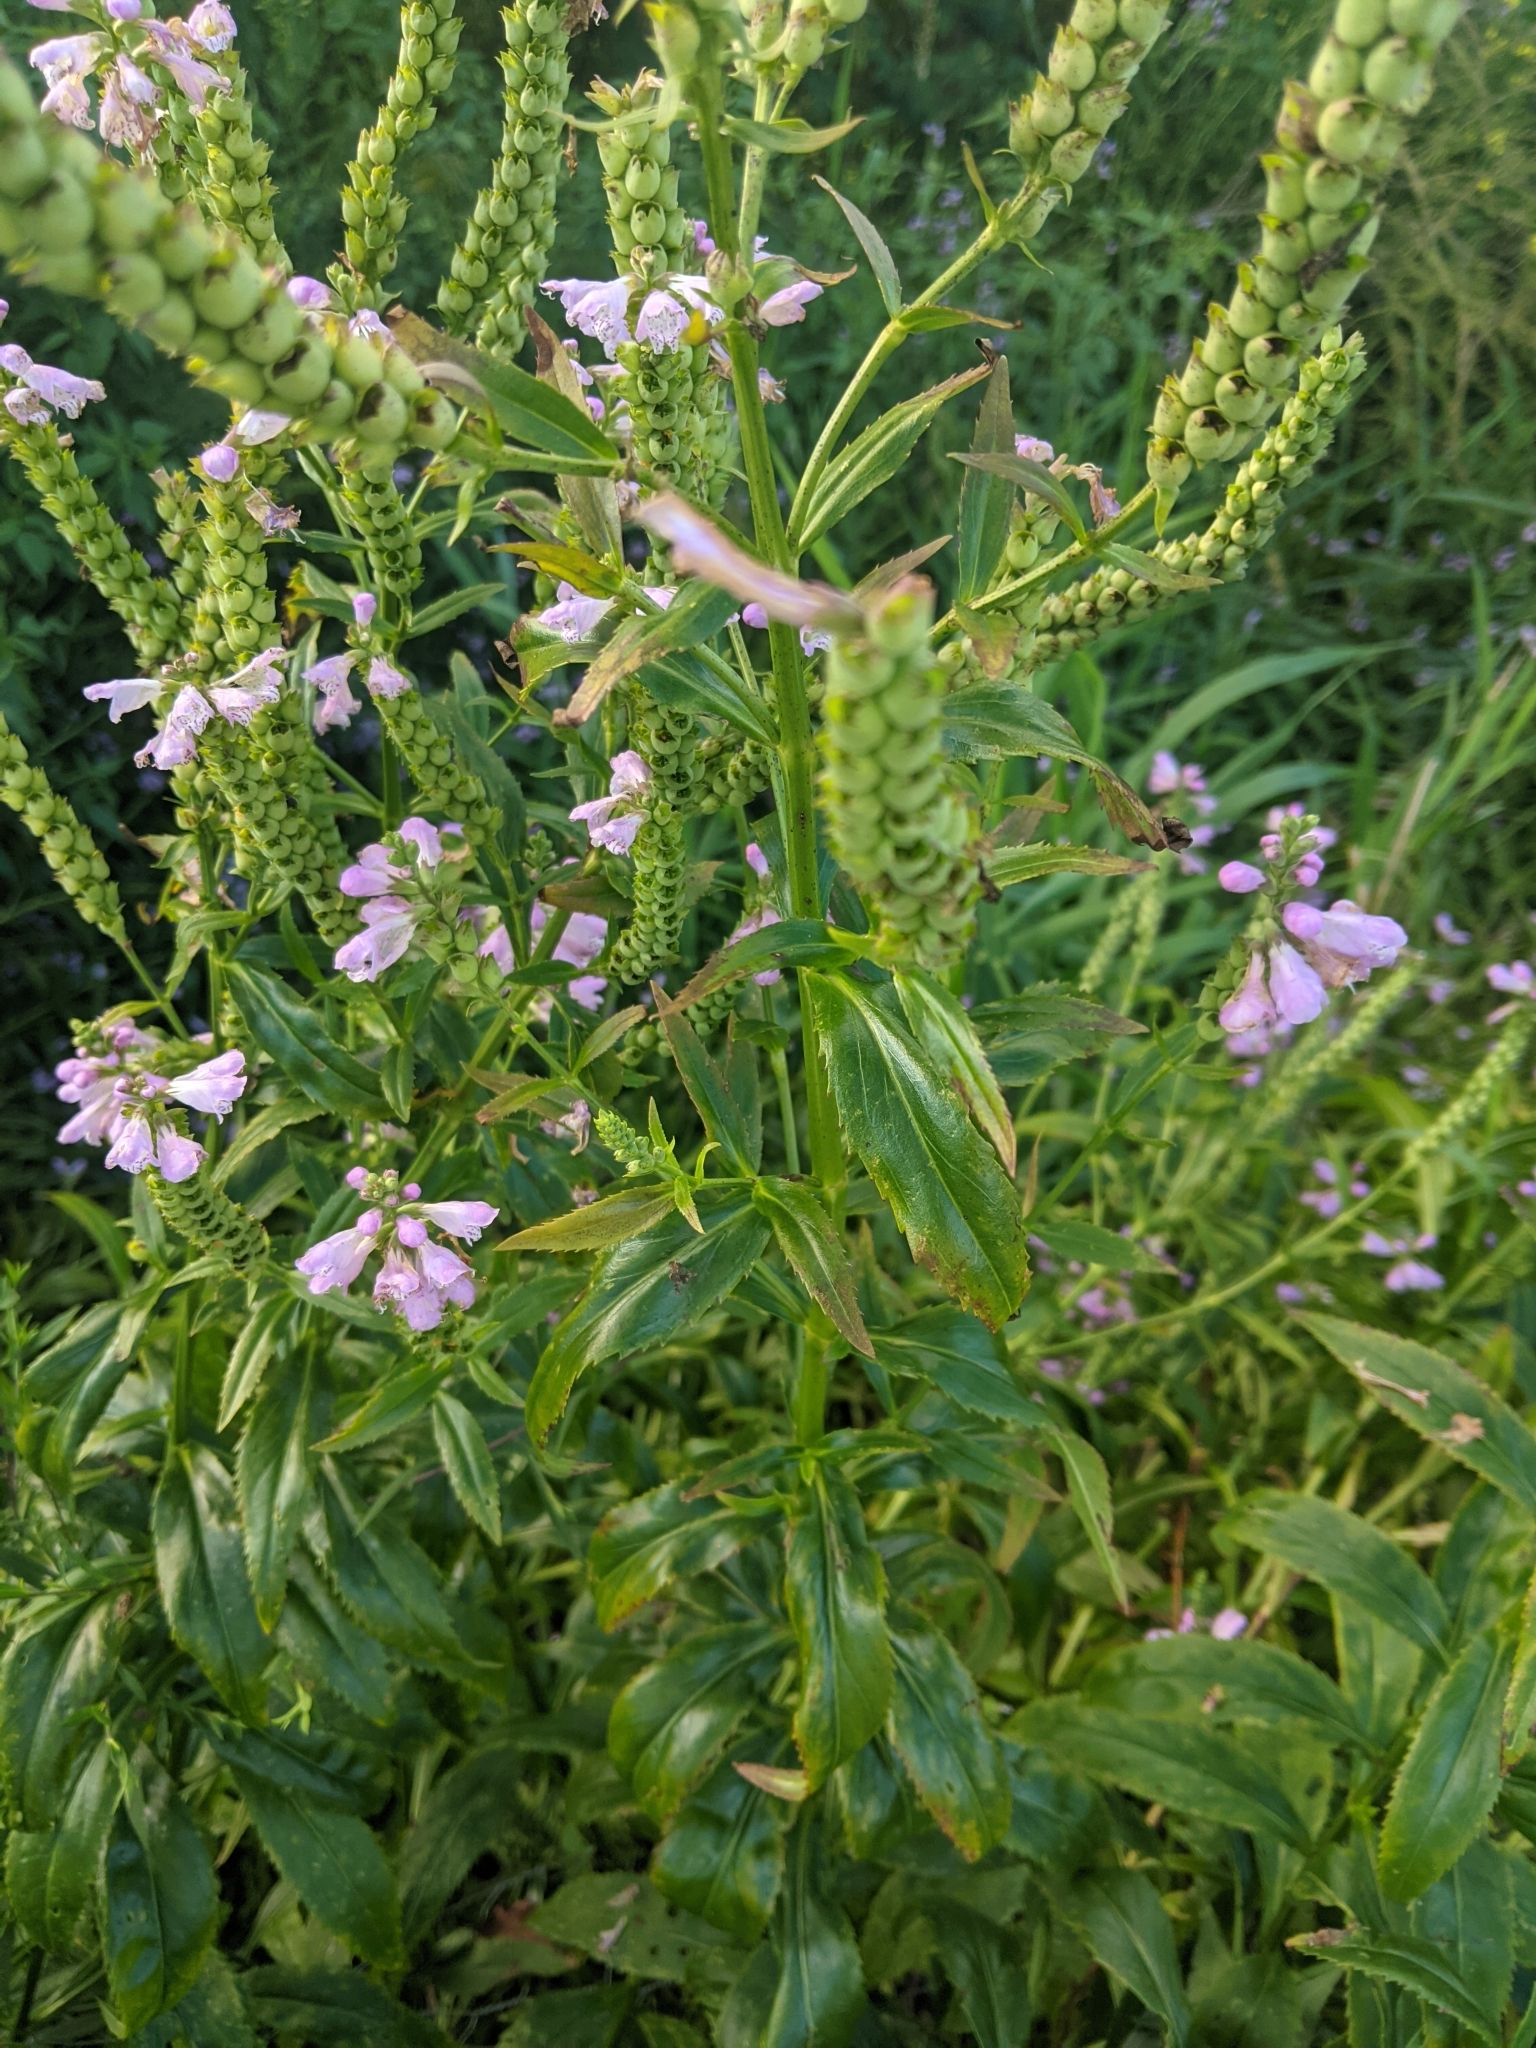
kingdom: Plantae
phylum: Tracheophyta
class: Magnoliopsida
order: Lamiales
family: Lamiaceae
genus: Physostegia
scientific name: Physostegia virginiana
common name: Obedient-plant
